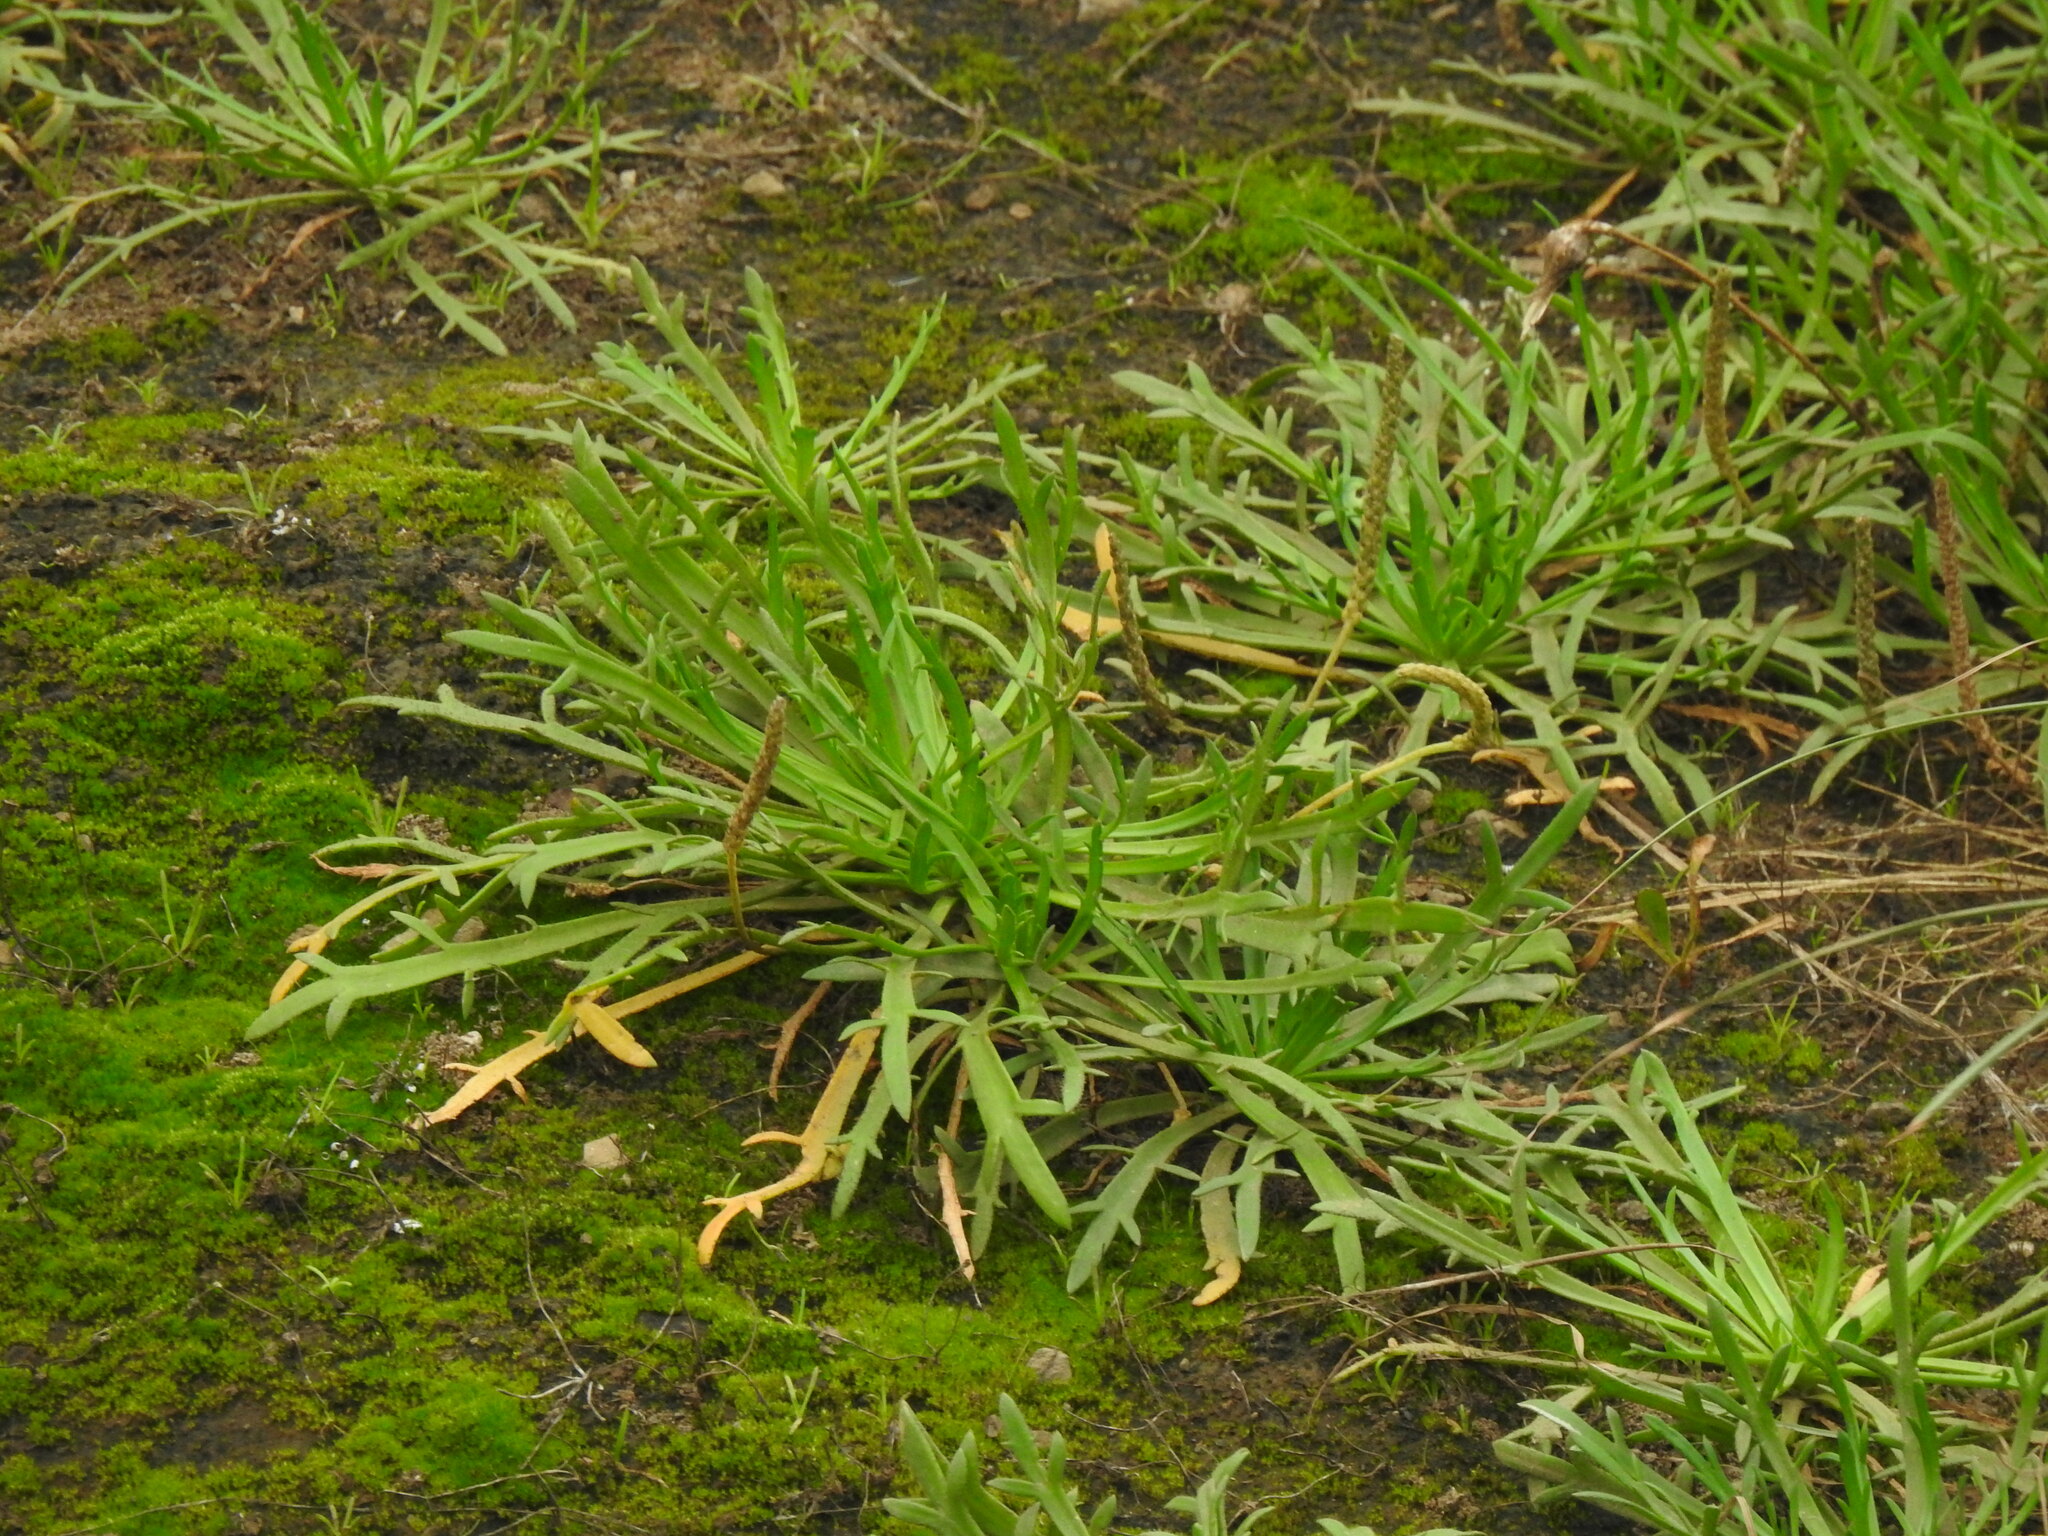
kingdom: Plantae
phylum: Tracheophyta
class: Magnoliopsida
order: Lamiales
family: Plantaginaceae
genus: Plantago
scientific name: Plantago coronopus
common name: Buck's-horn plantain
